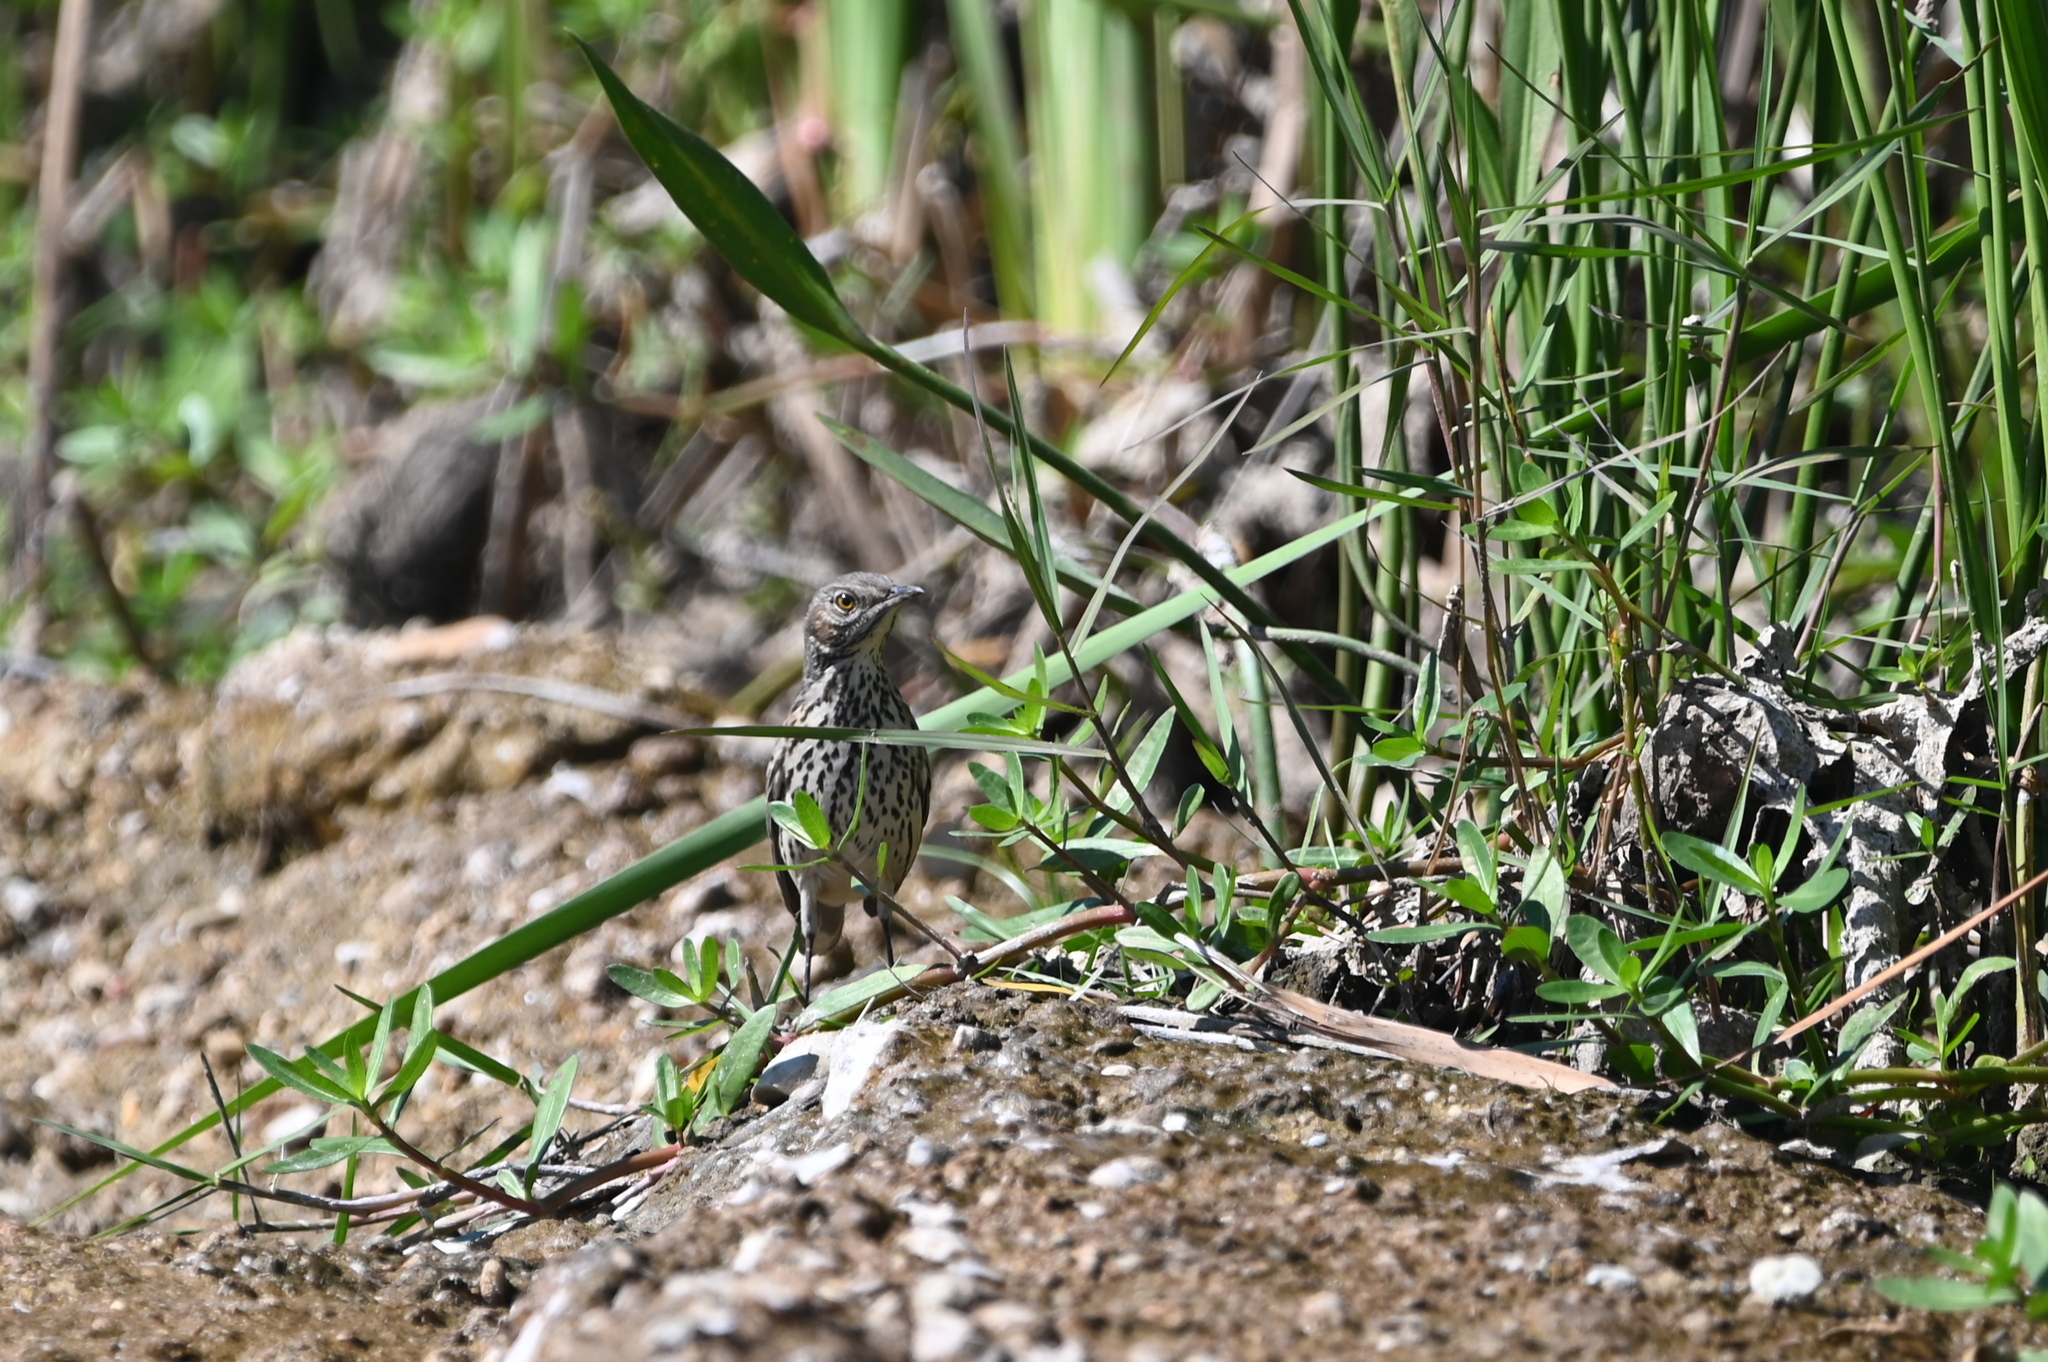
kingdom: Animalia
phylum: Chordata
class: Aves
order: Passeriformes
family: Mimidae
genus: Oreoscoptes
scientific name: Oreoscoptes montanus
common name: Sage thrasher
